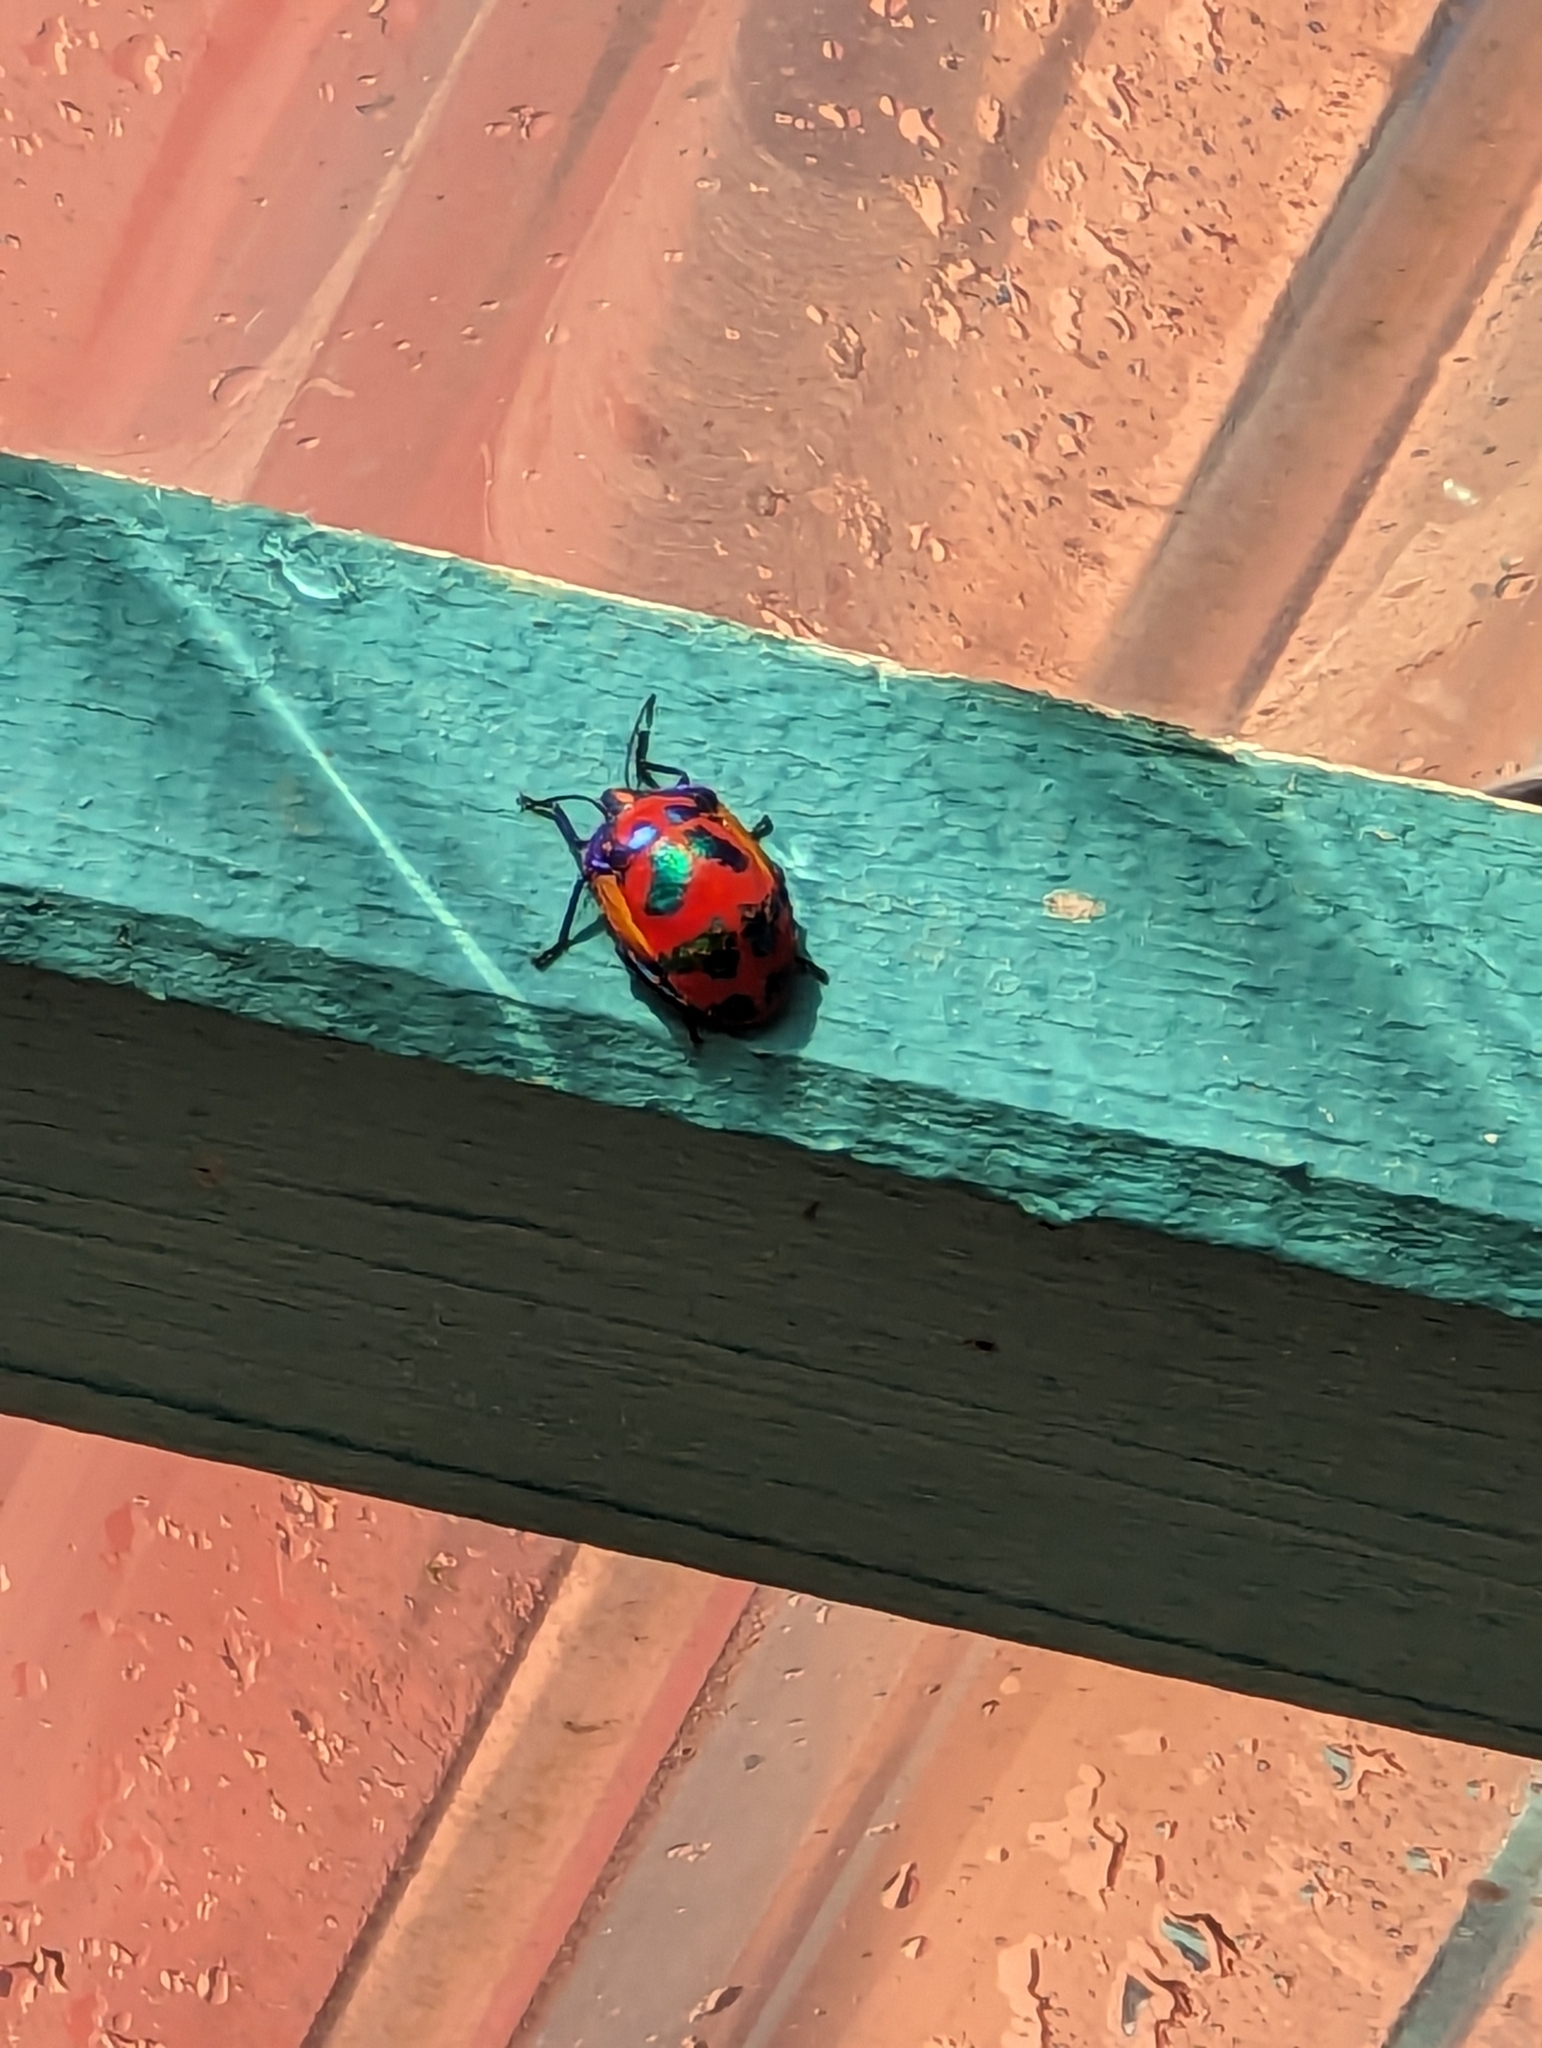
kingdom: Animalia
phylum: Arthropoda
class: Insecta
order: Hemiptera
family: Scutelleridae
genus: Tectocoris
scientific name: Tectocoris diophthalmus
